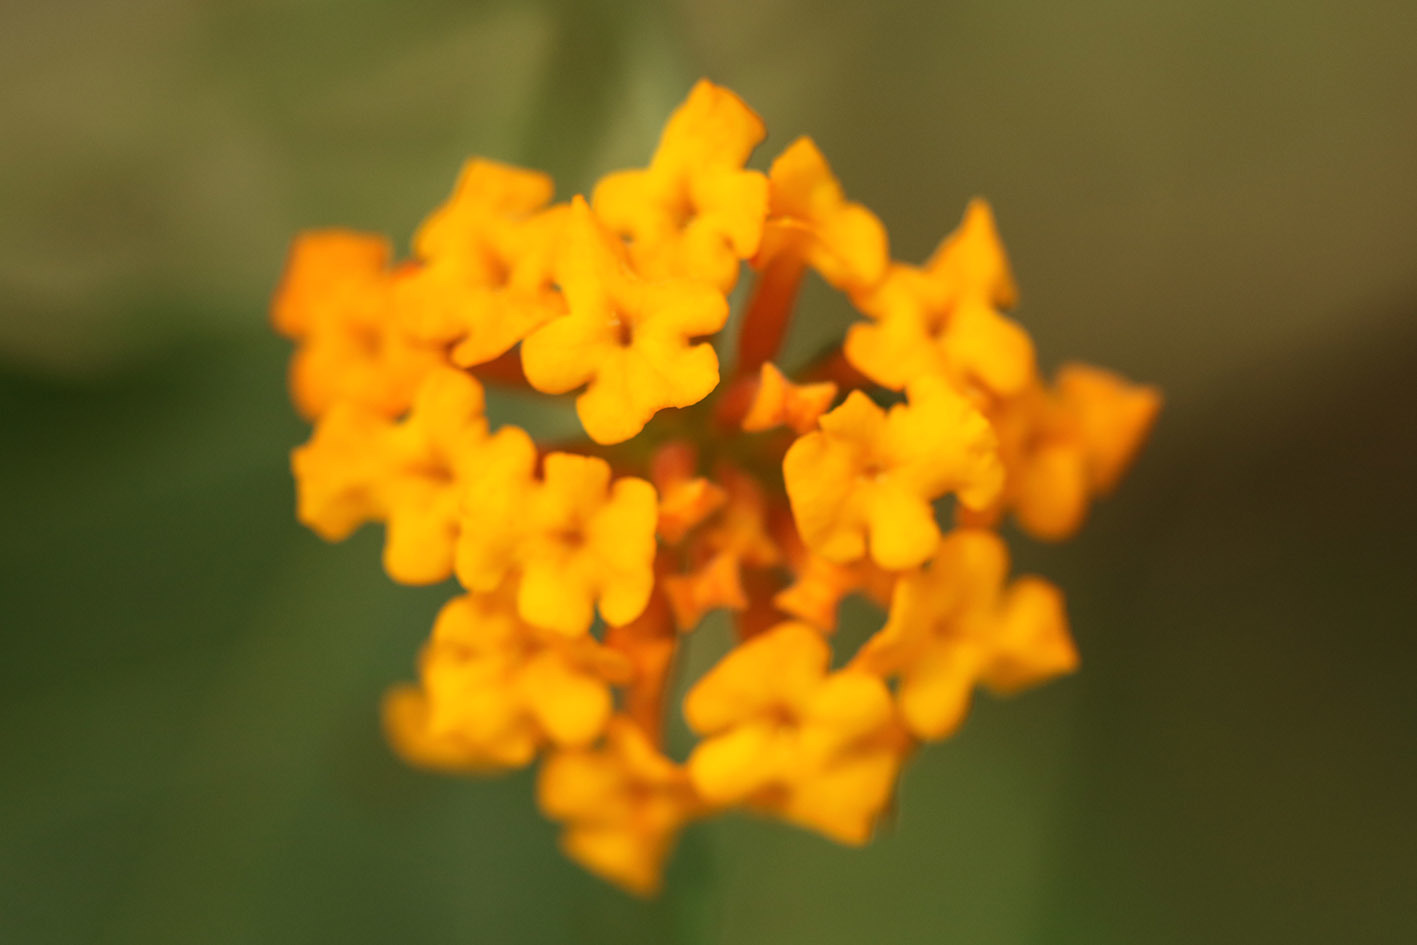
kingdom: Plantae
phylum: Tracheophyta
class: Magnoliopsida
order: Lamiales
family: Verbenaceae
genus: Lantana
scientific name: Lantana camara
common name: Lantana
